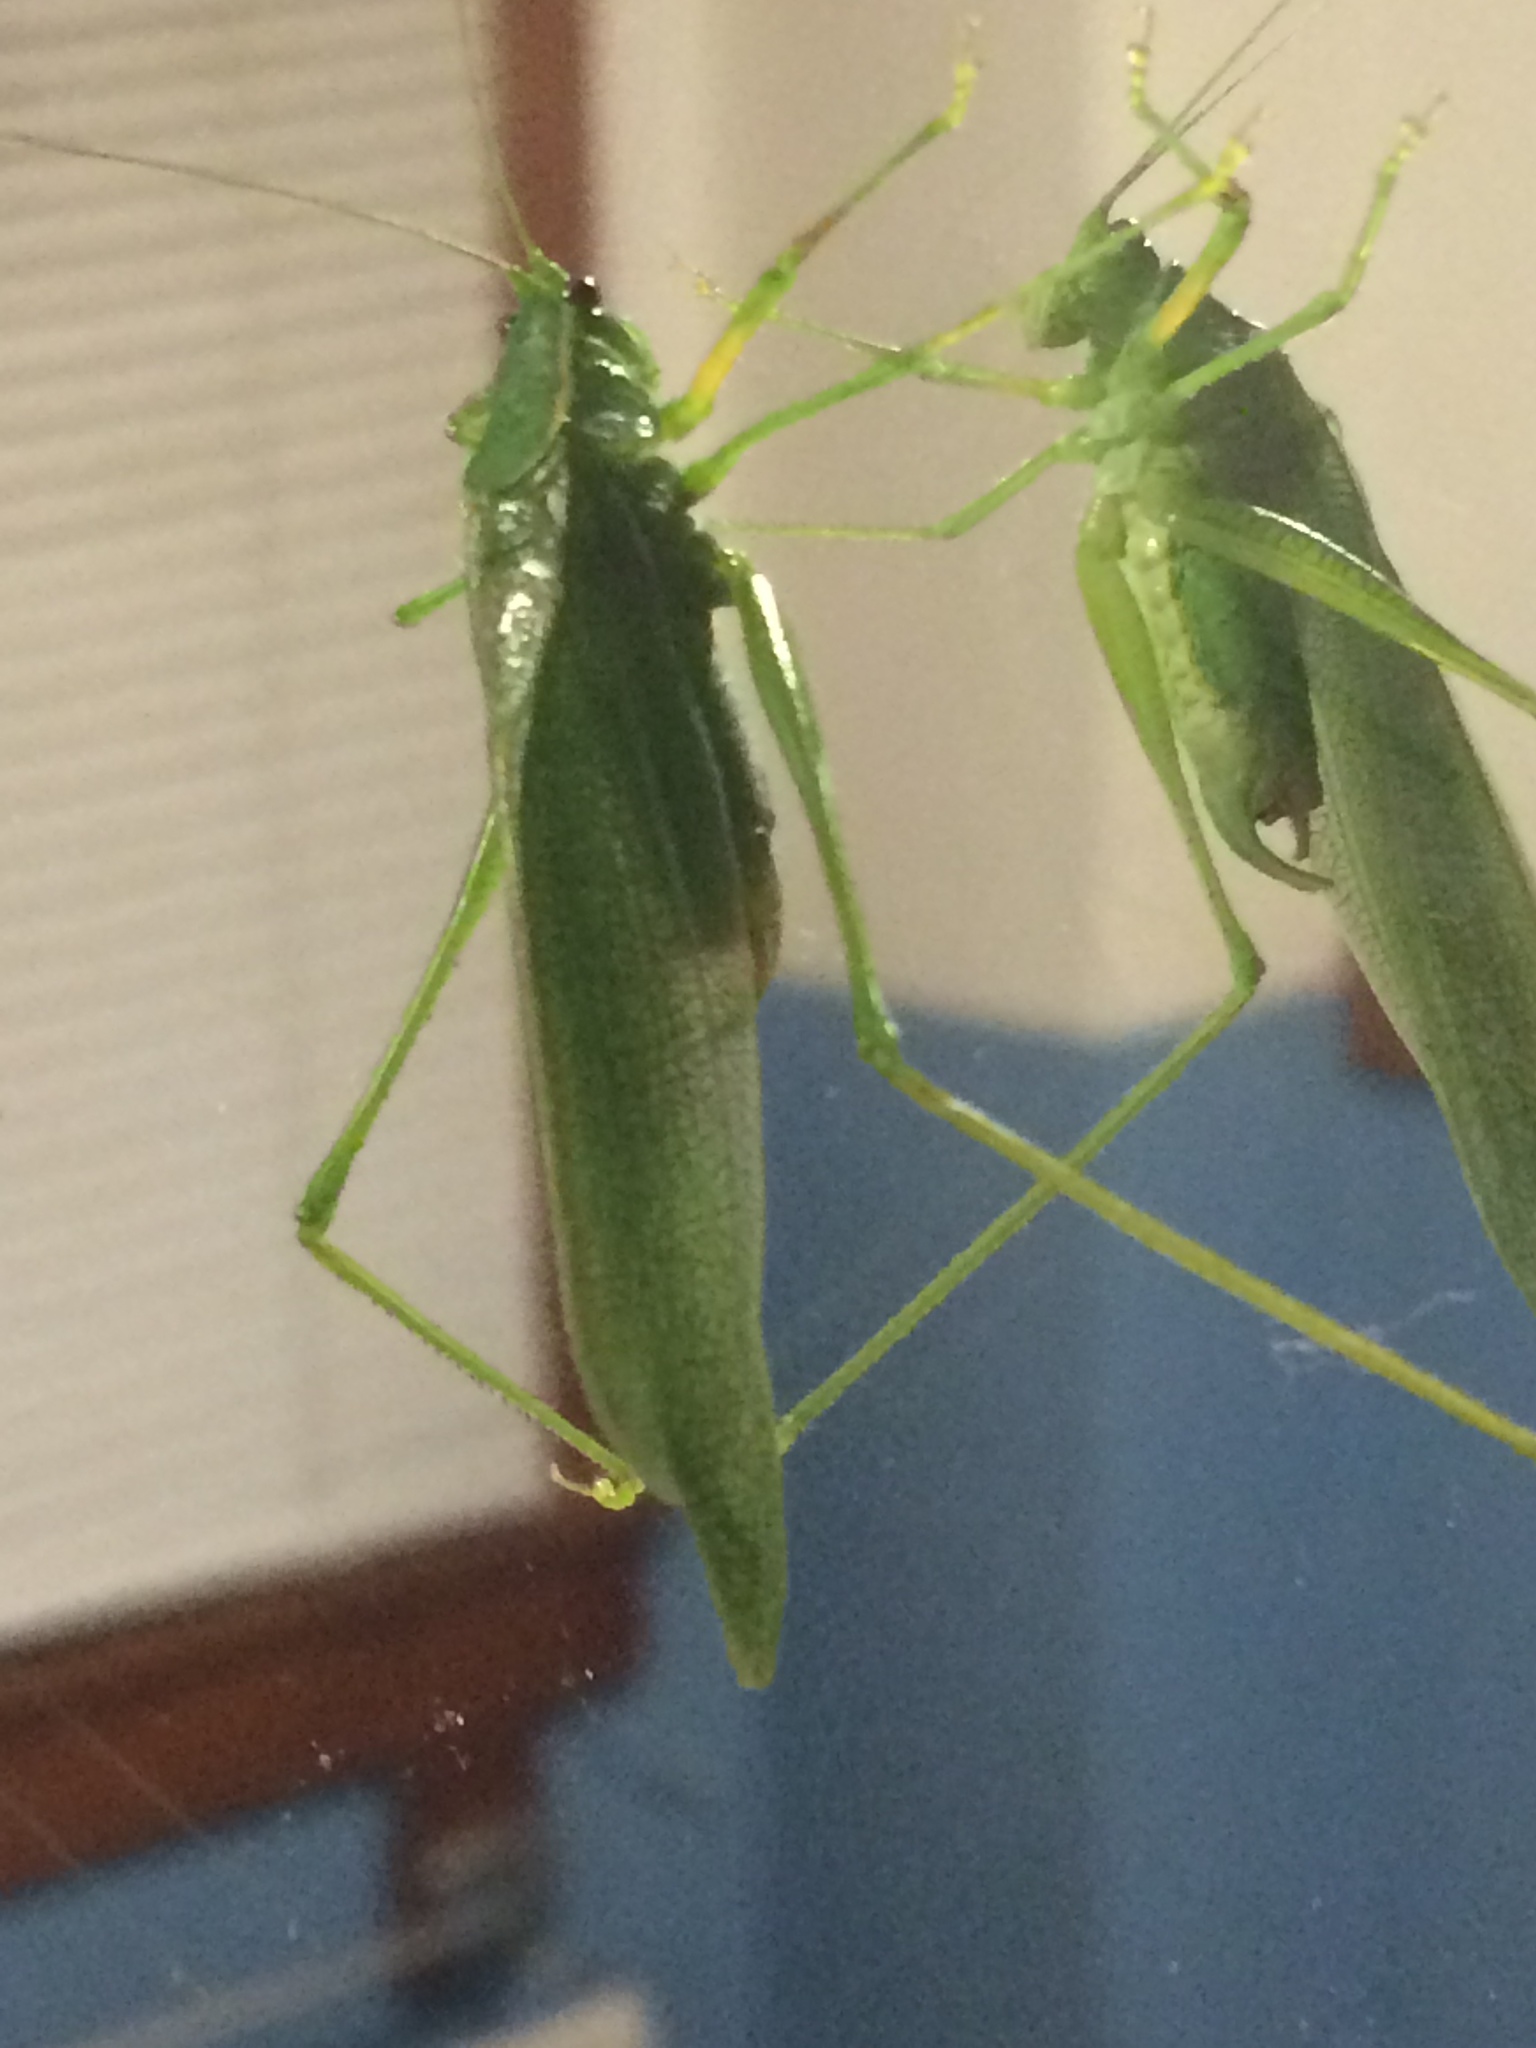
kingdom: Animalia
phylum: Arthropoda
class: Insecta
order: Orthoptera
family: Tettigoniidae
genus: Scudderia
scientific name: Scudderia septentrionalis
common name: Northern bush-katydid
